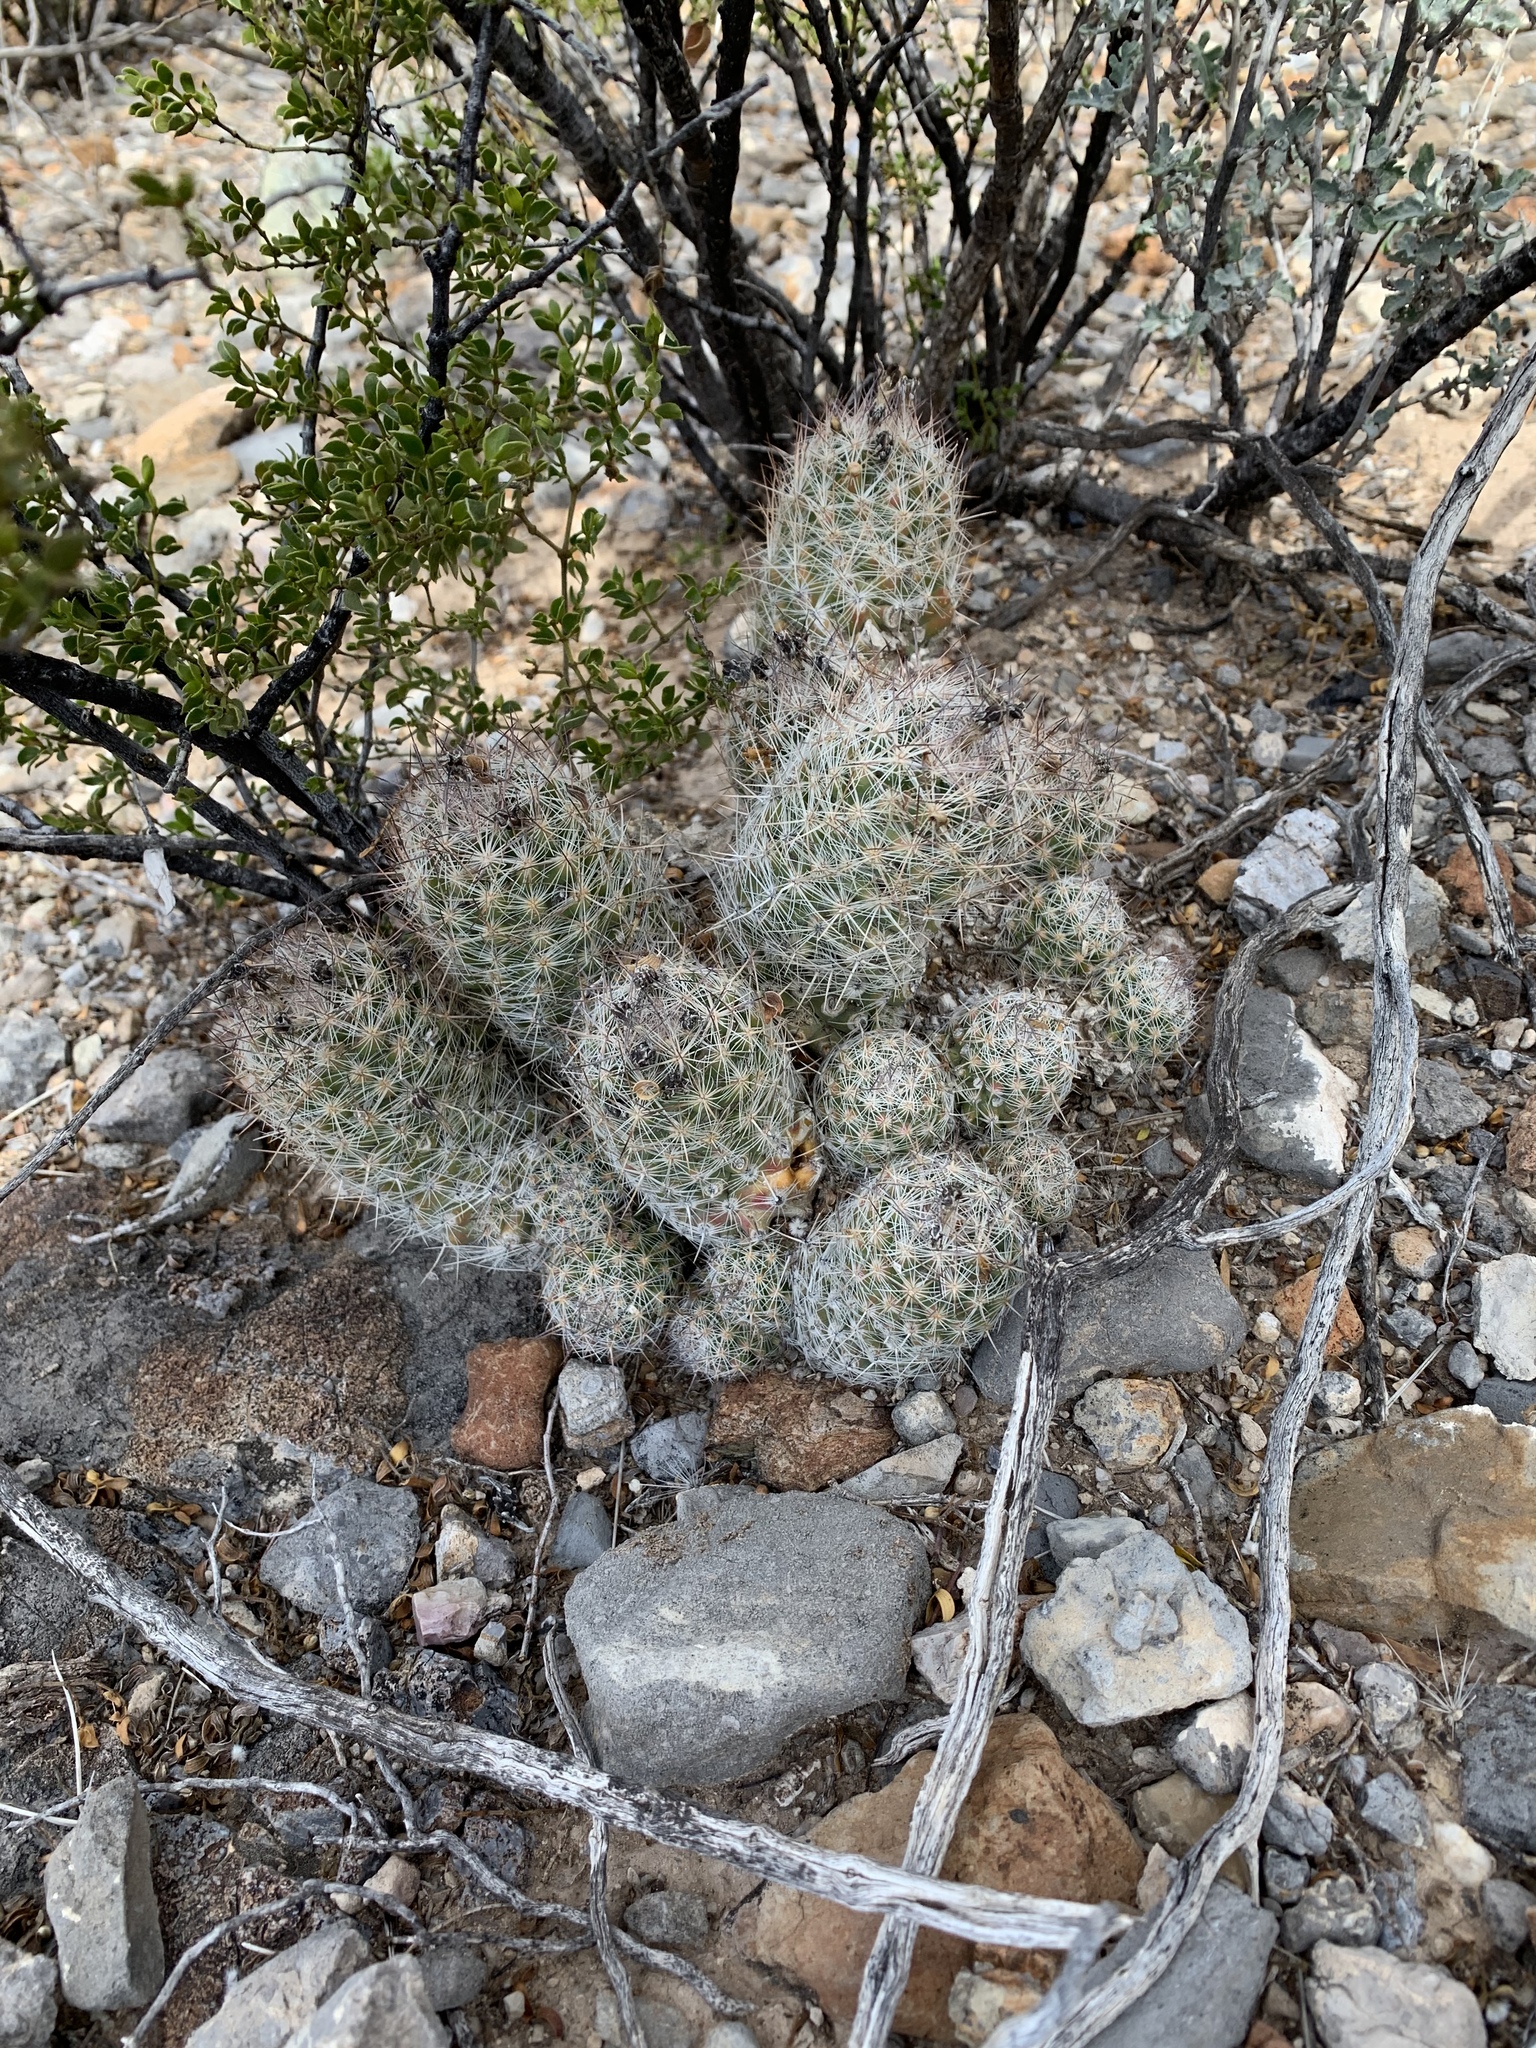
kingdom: Plantae
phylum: Tracheophyta
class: Magnoliopsida
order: Caryophyllales
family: Cactaceae
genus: Pelecyphora
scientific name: Pelecyphora tuberculosa
